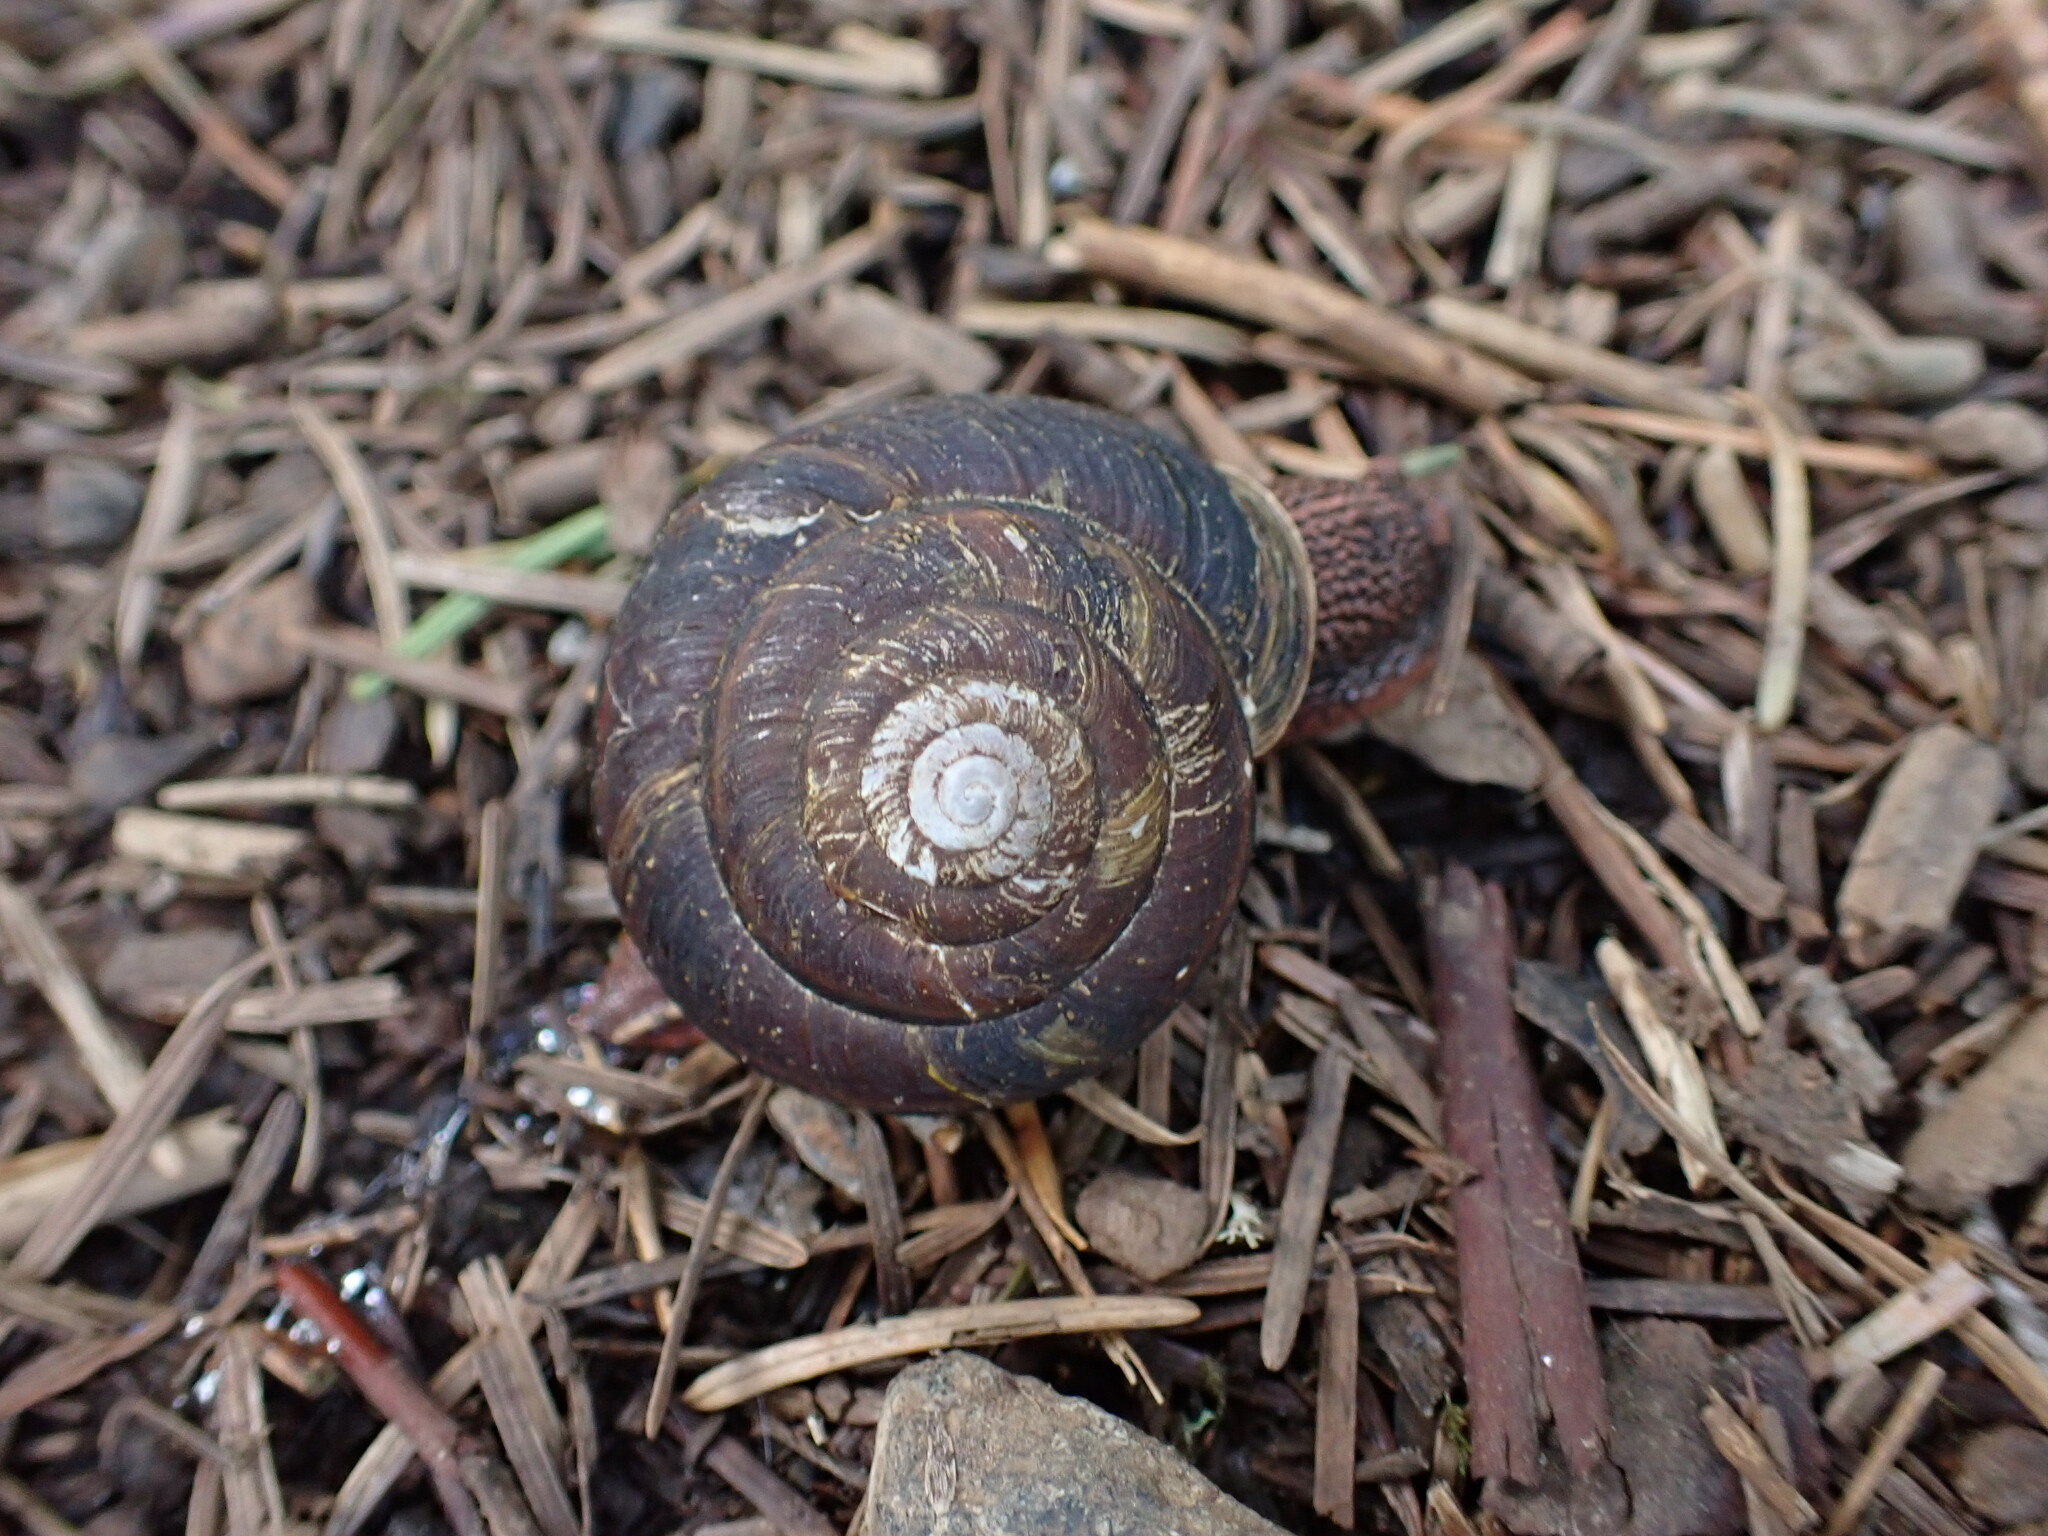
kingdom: Animalia
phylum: Mollusca
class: Gastropoda
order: Stylommatophora
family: Xanthonychidae
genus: Monadenia
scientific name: Monadenia fidelis
